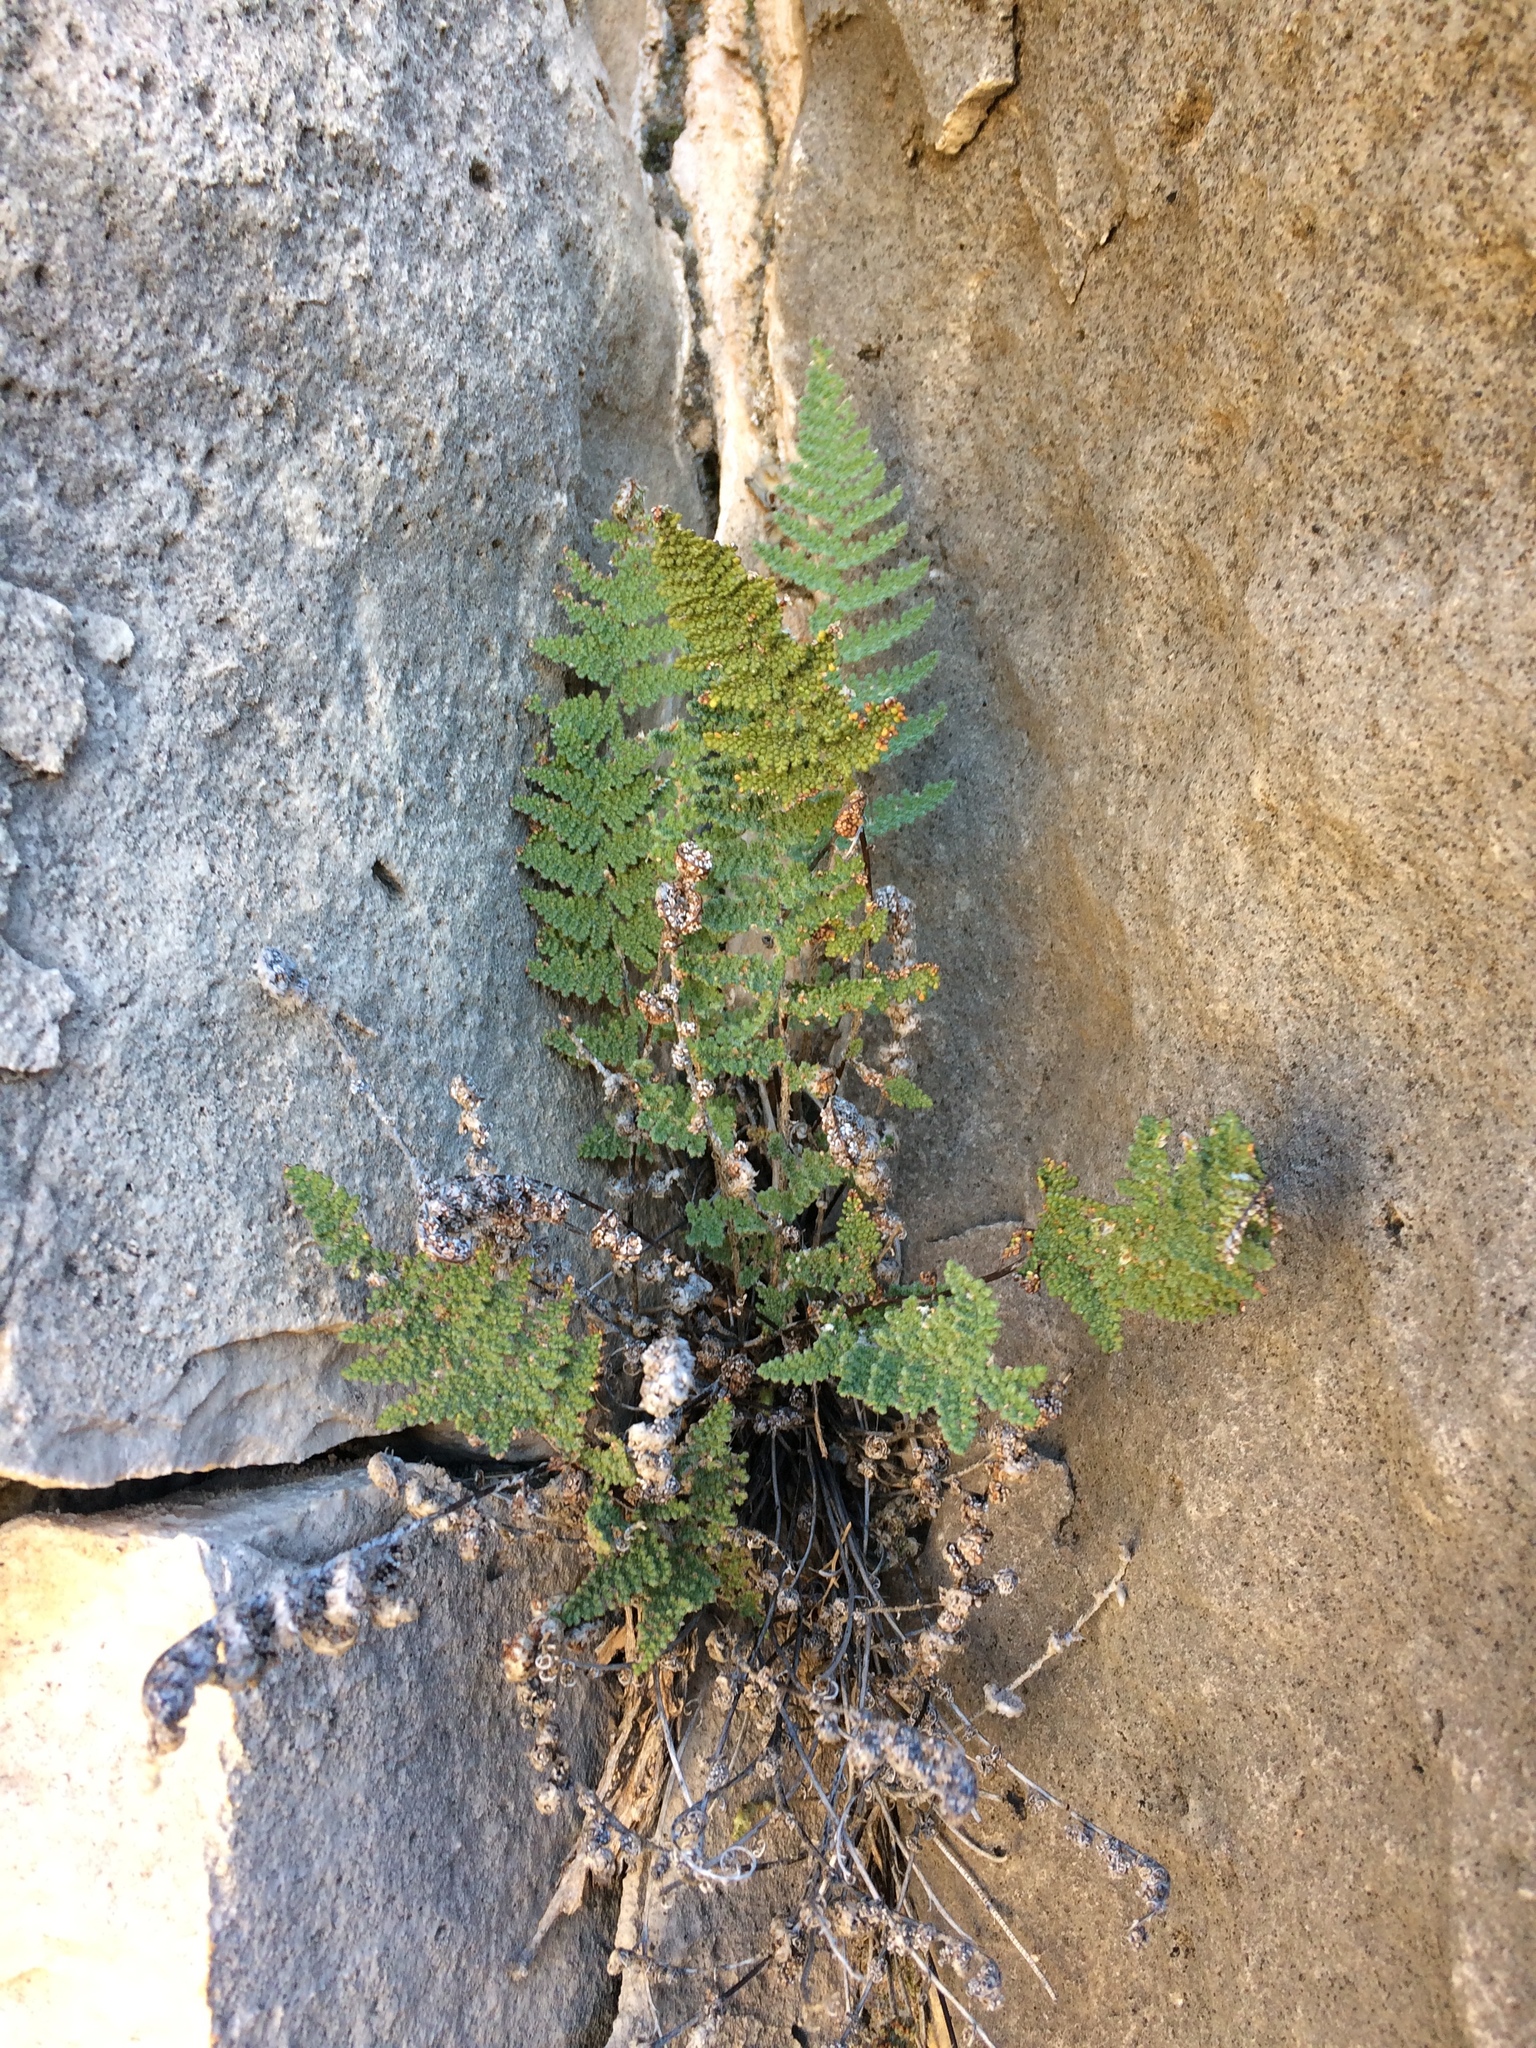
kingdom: Plantae
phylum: Tracheophyta
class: Polypodiopsida
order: Polypodiales
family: Pteridaceae
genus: Myriopteris
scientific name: Myriopteris windhamii
